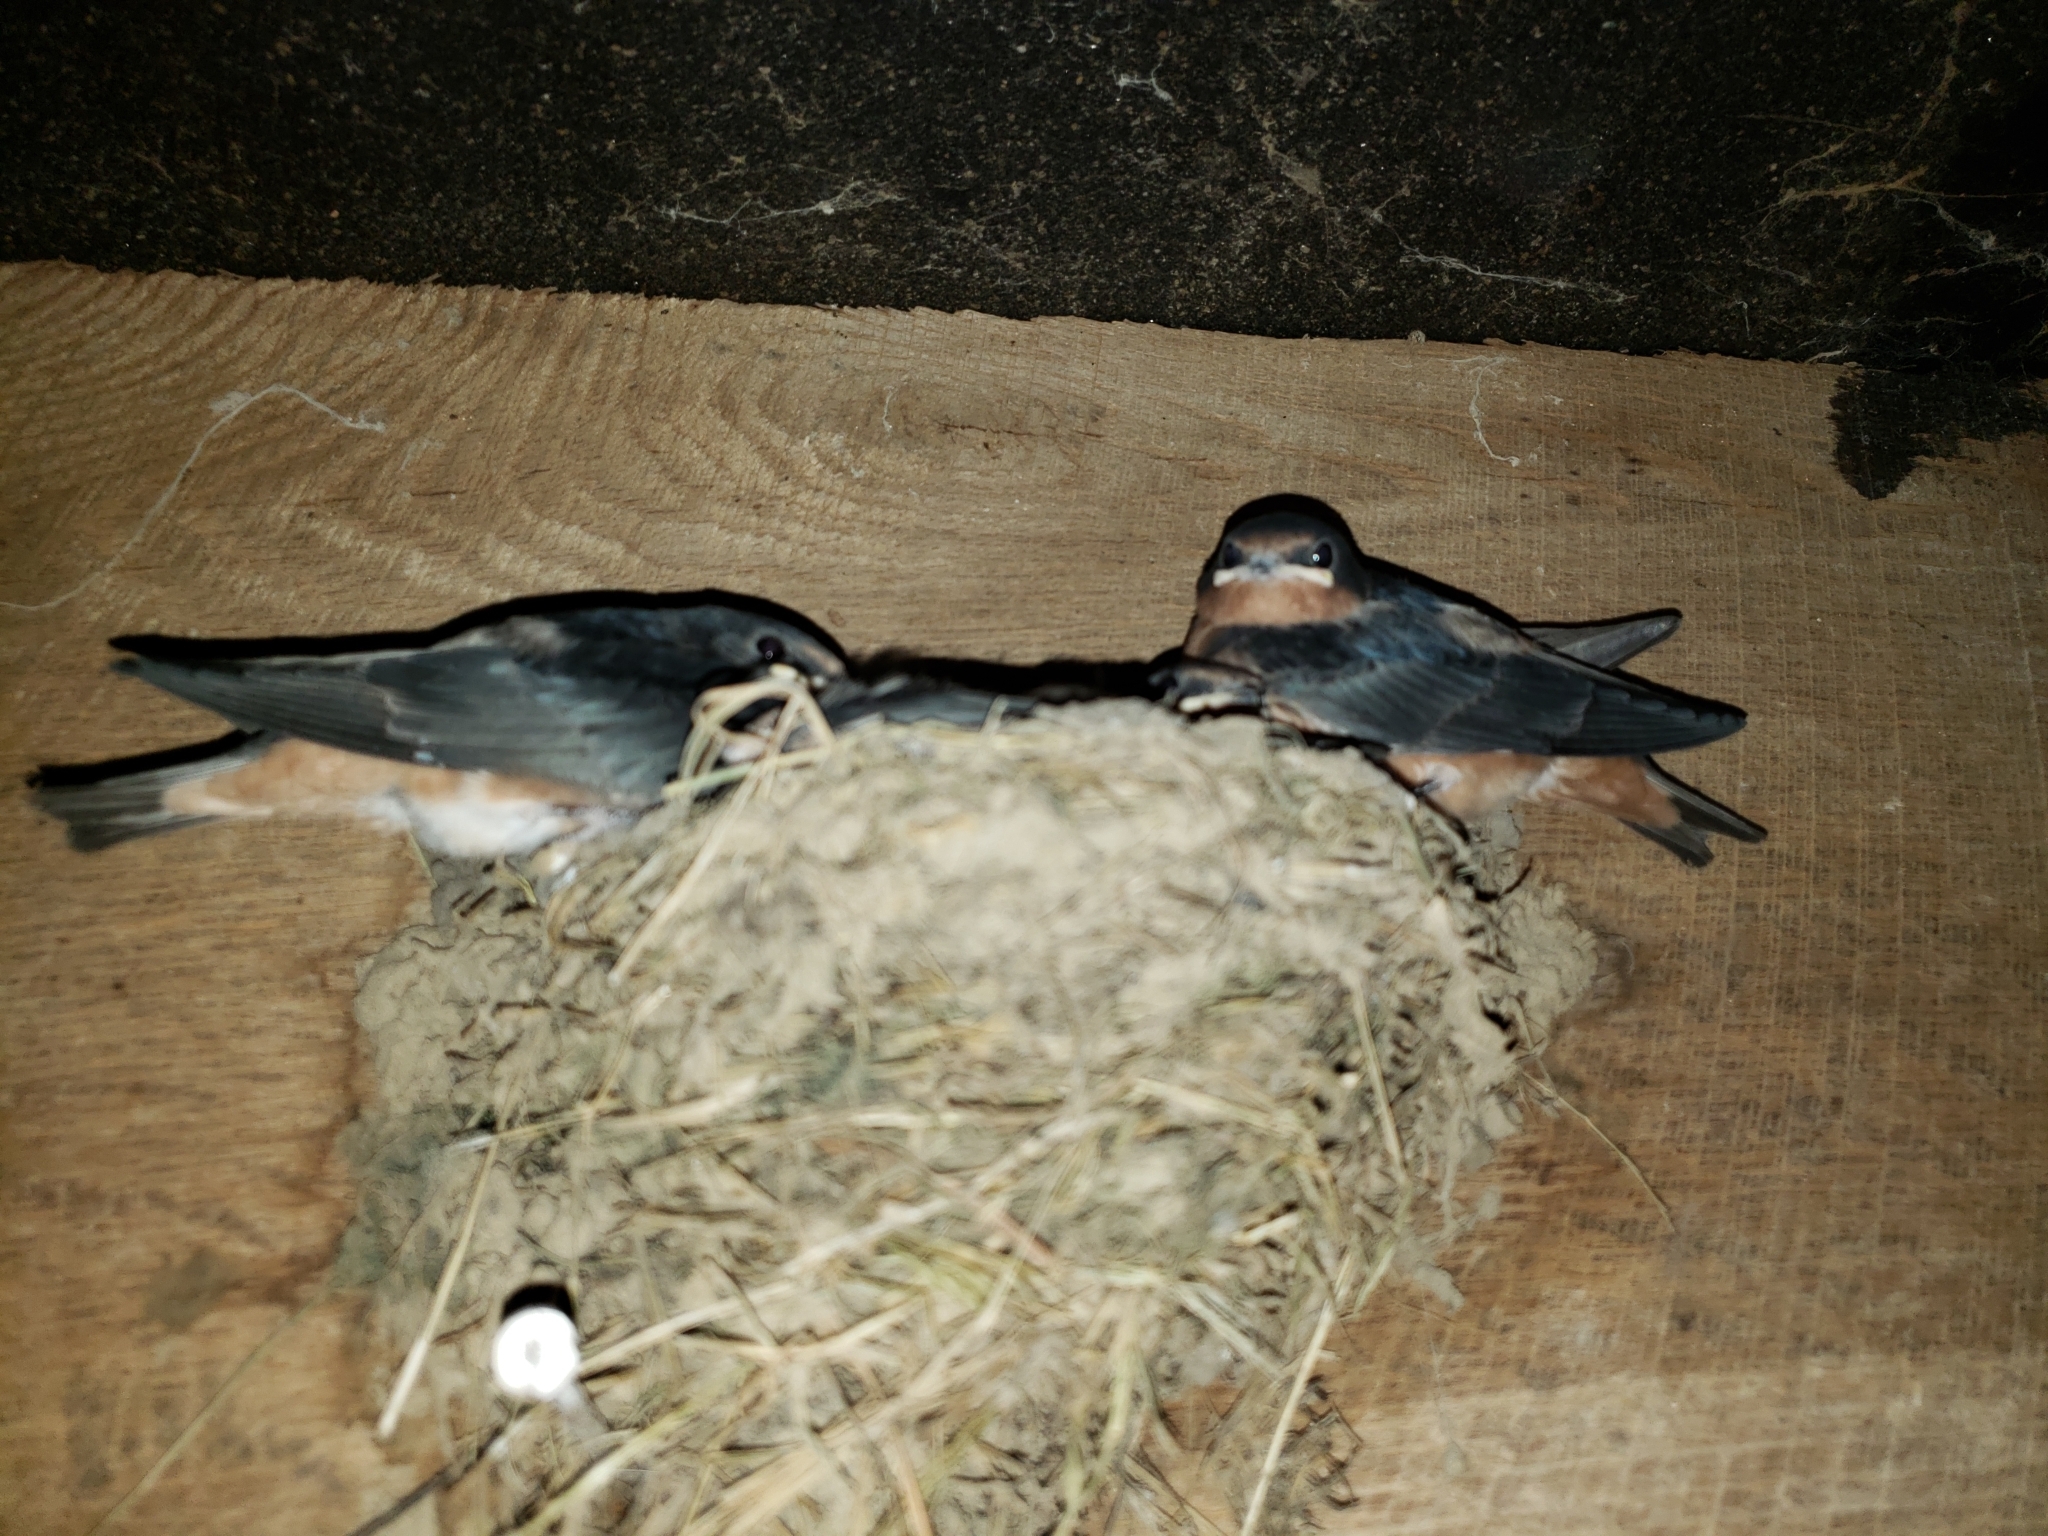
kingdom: Animalia
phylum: Chordata
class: Aves
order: Passeriformes
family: Hirundinidae
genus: Hirundo
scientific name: Hirundo rustica
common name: Barn swallow
